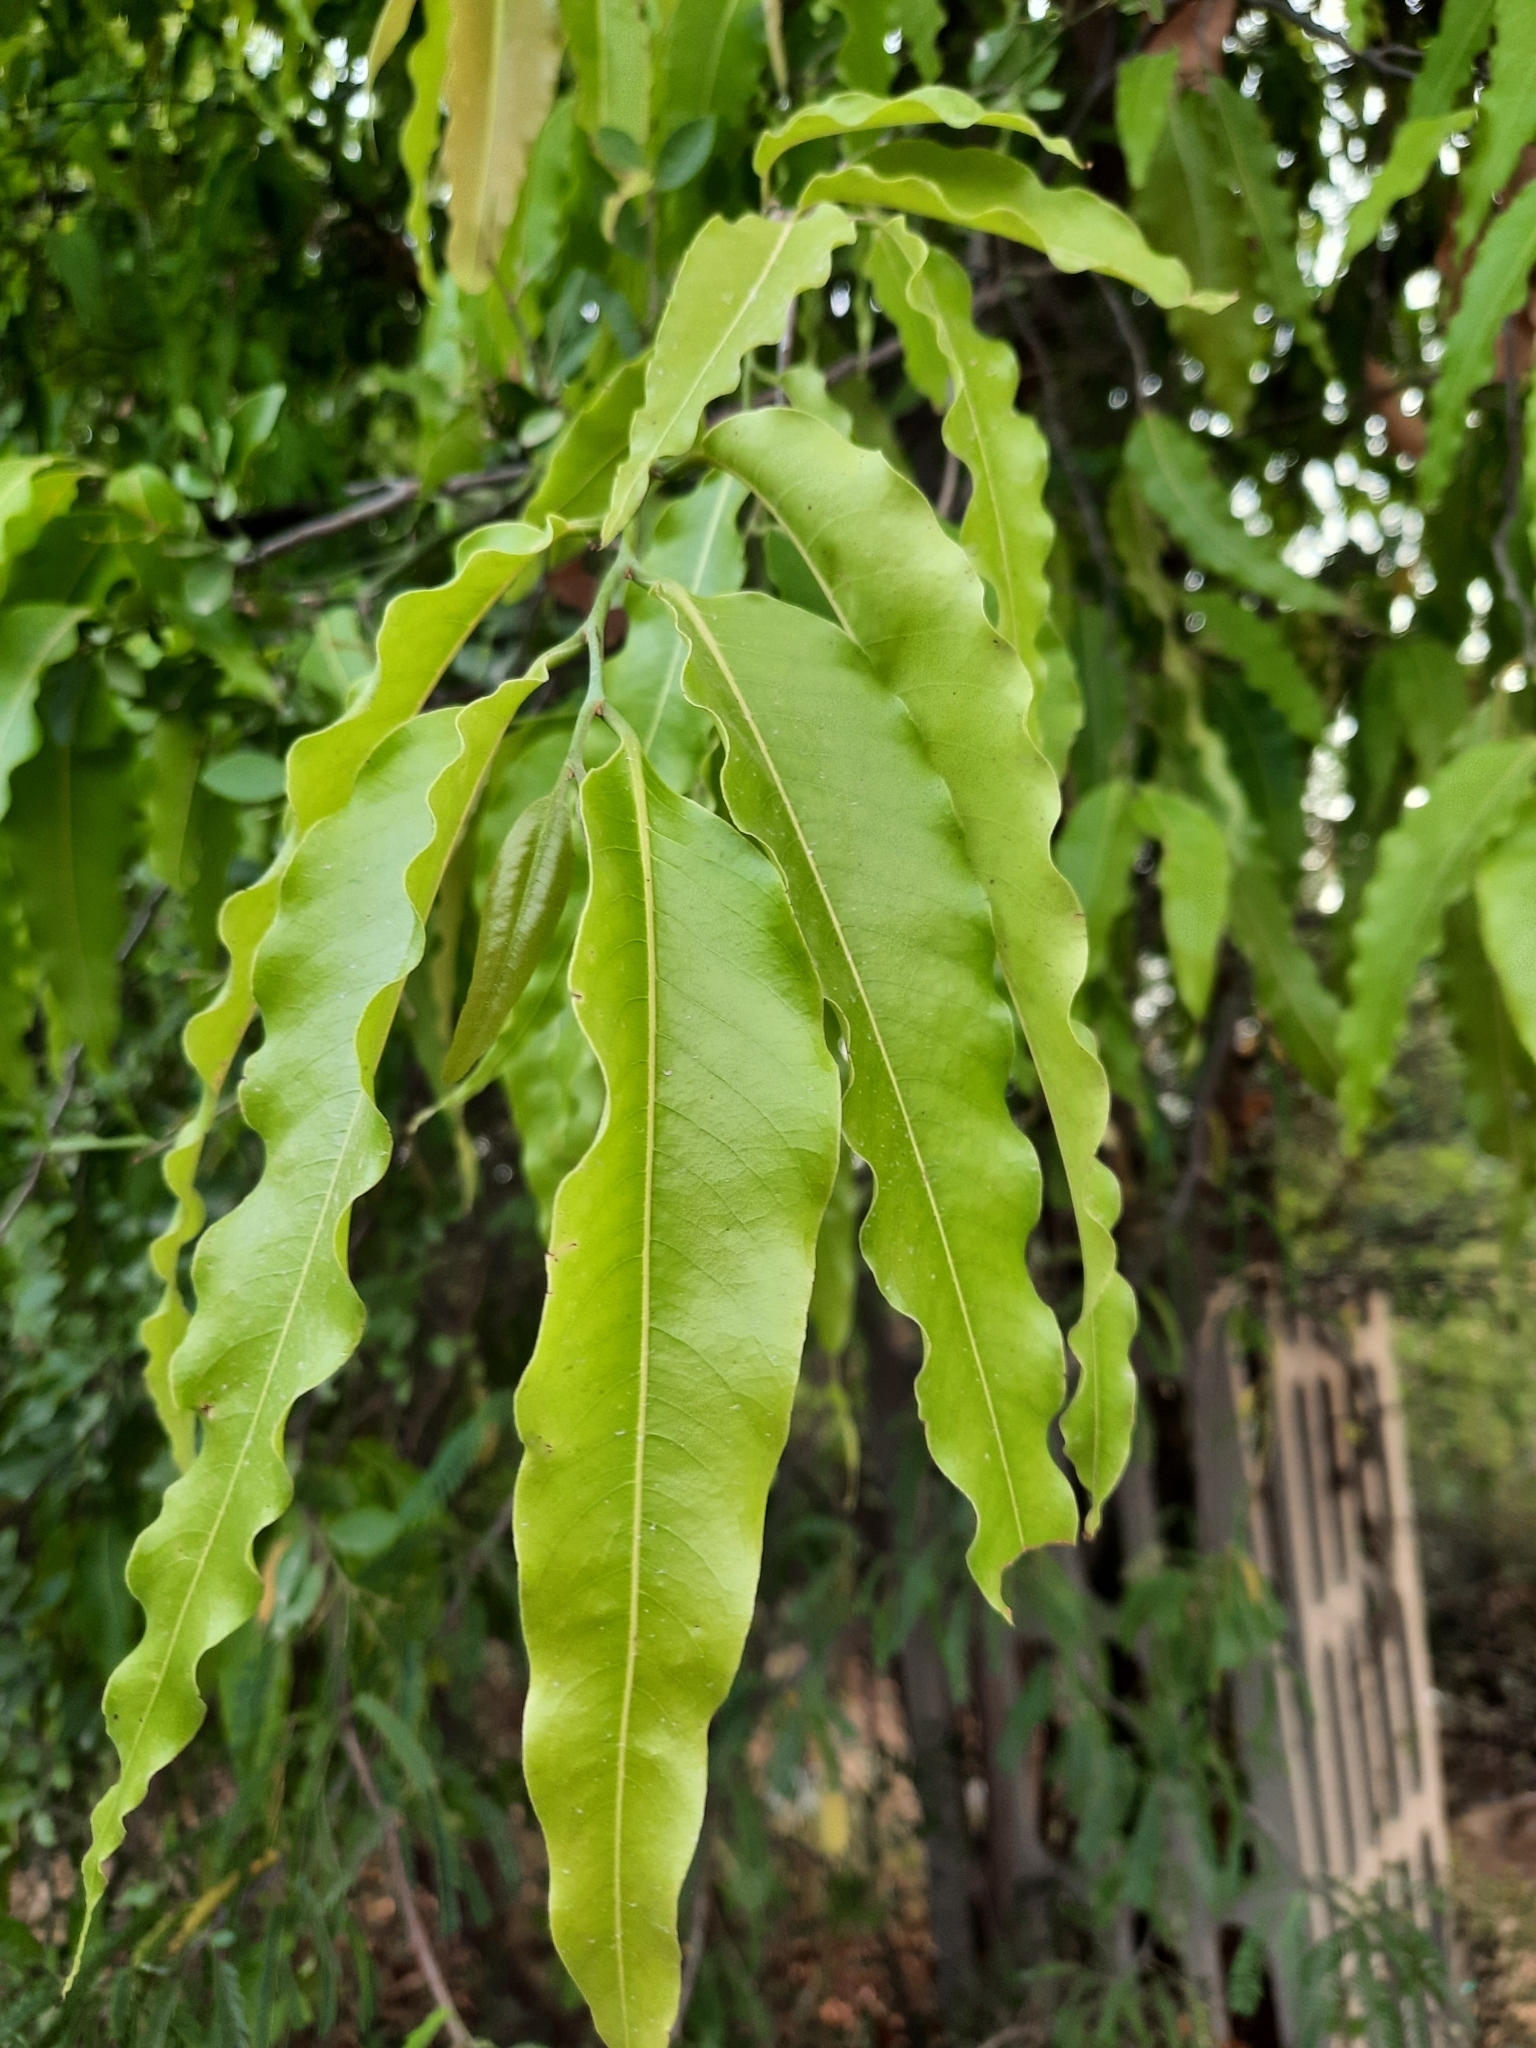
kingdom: Plantae
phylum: Tracheophyta
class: Magnoliopsida
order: Magnoliales
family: Annonaceae
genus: Polyalthia
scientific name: Polyalthia longifolia
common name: Cemetery-tree
